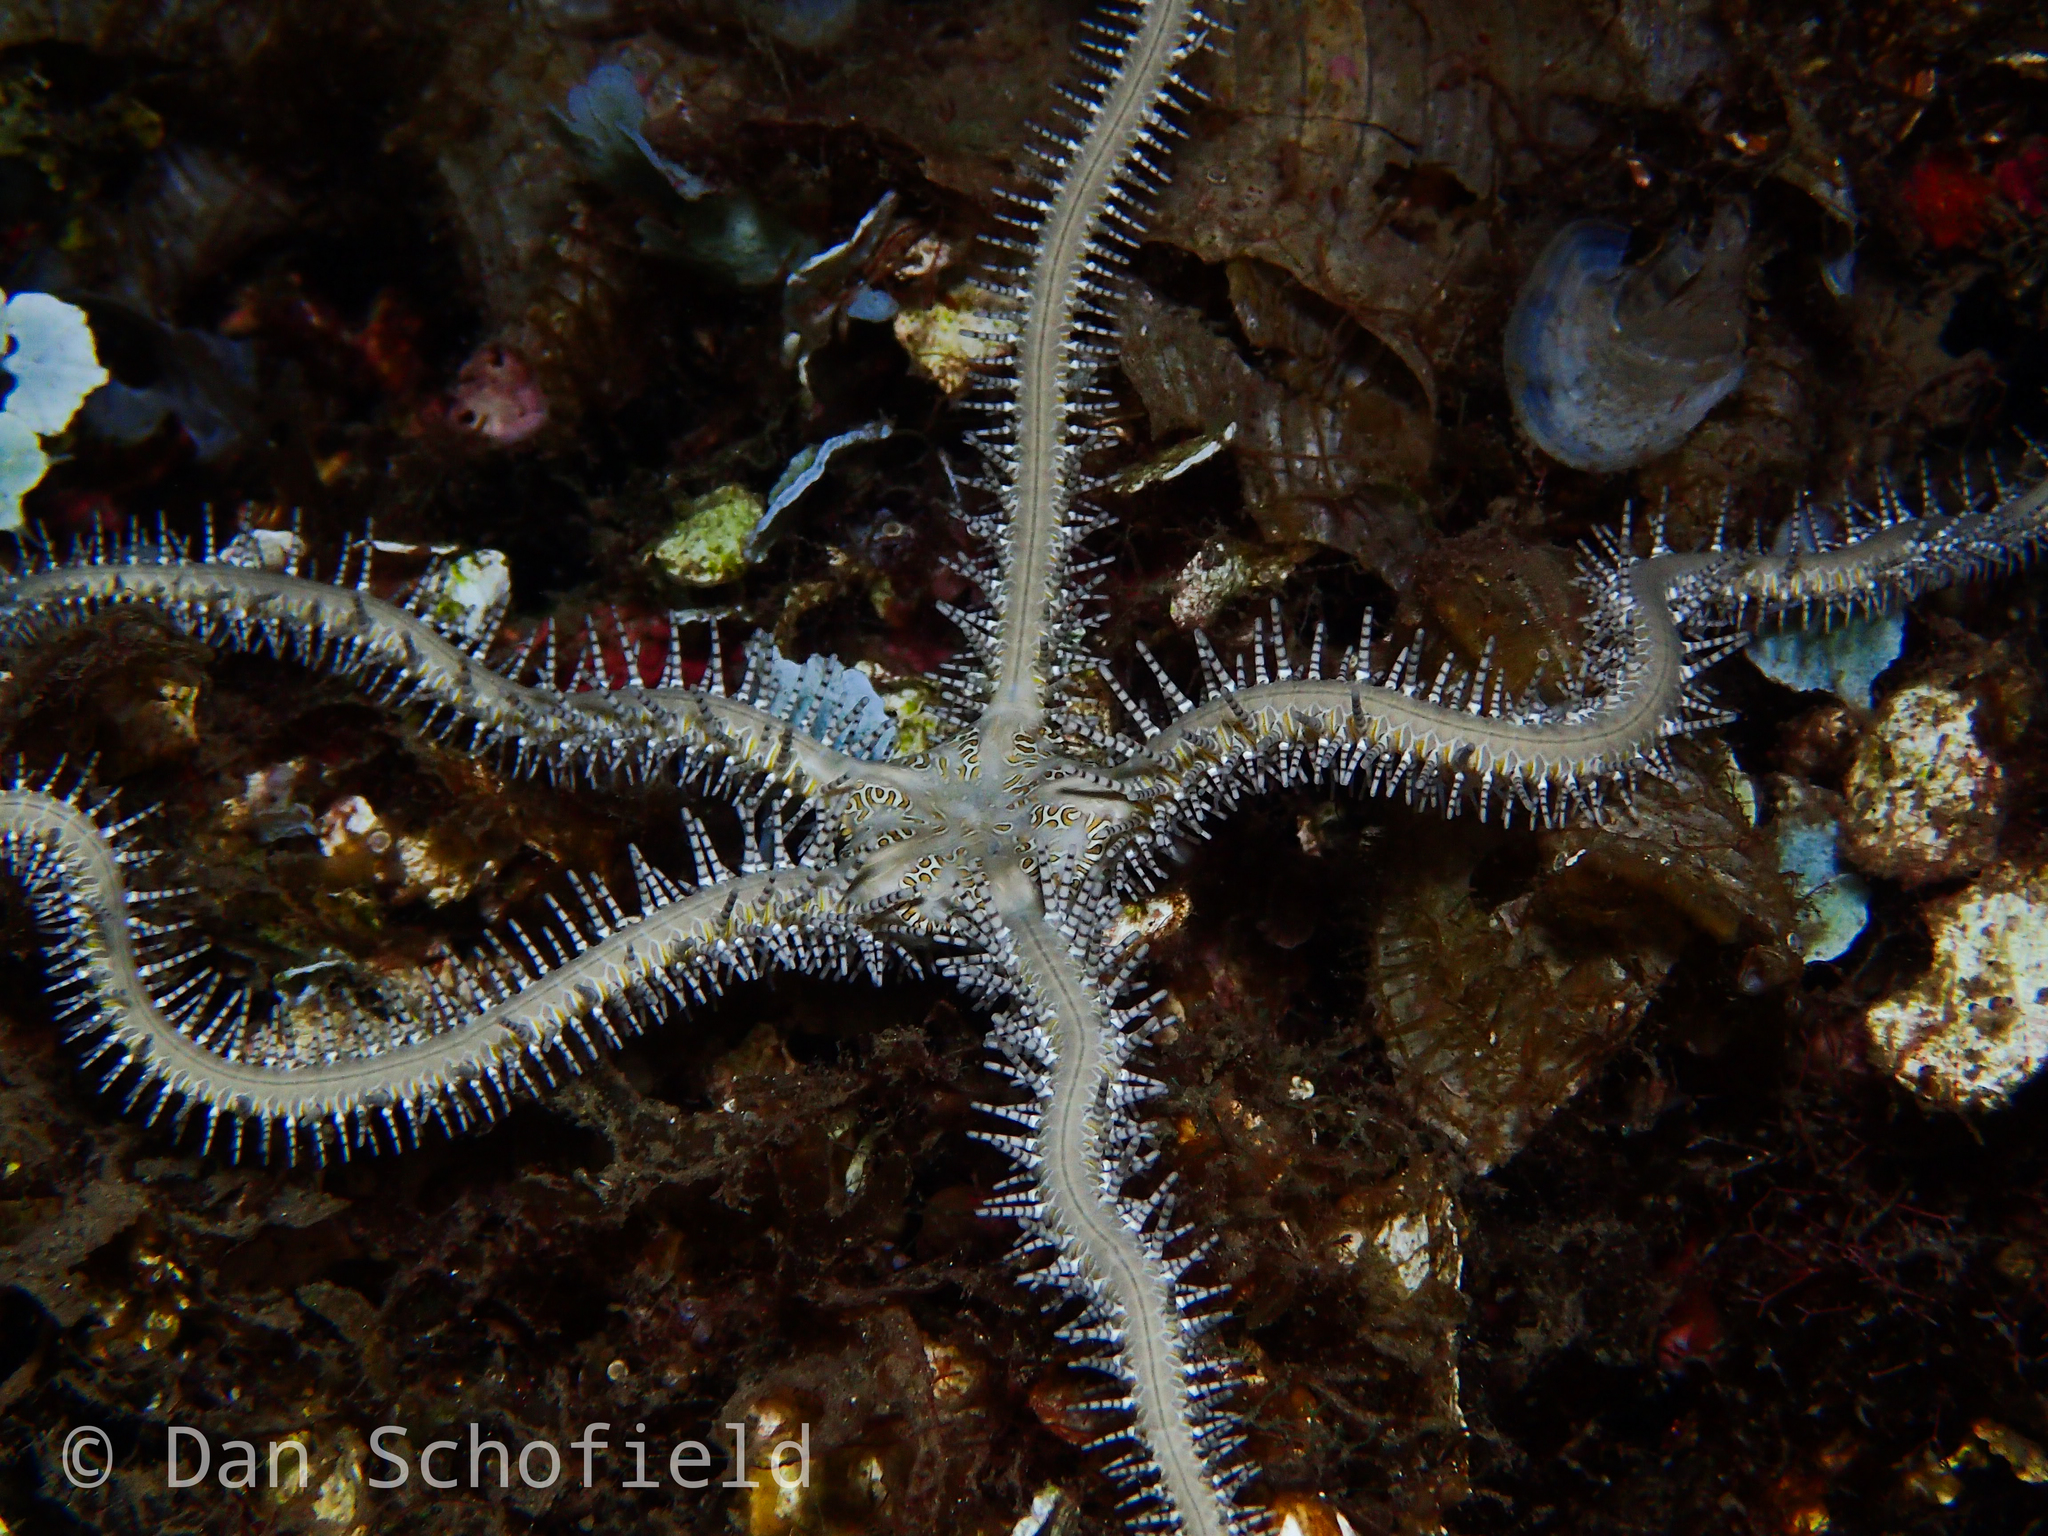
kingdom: Animalia
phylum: Echinodermata
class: Ophiuroidea
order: Ophiacanthida
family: Ophiocomidae
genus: Ophiomastix
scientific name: Ophiomastix pictum
